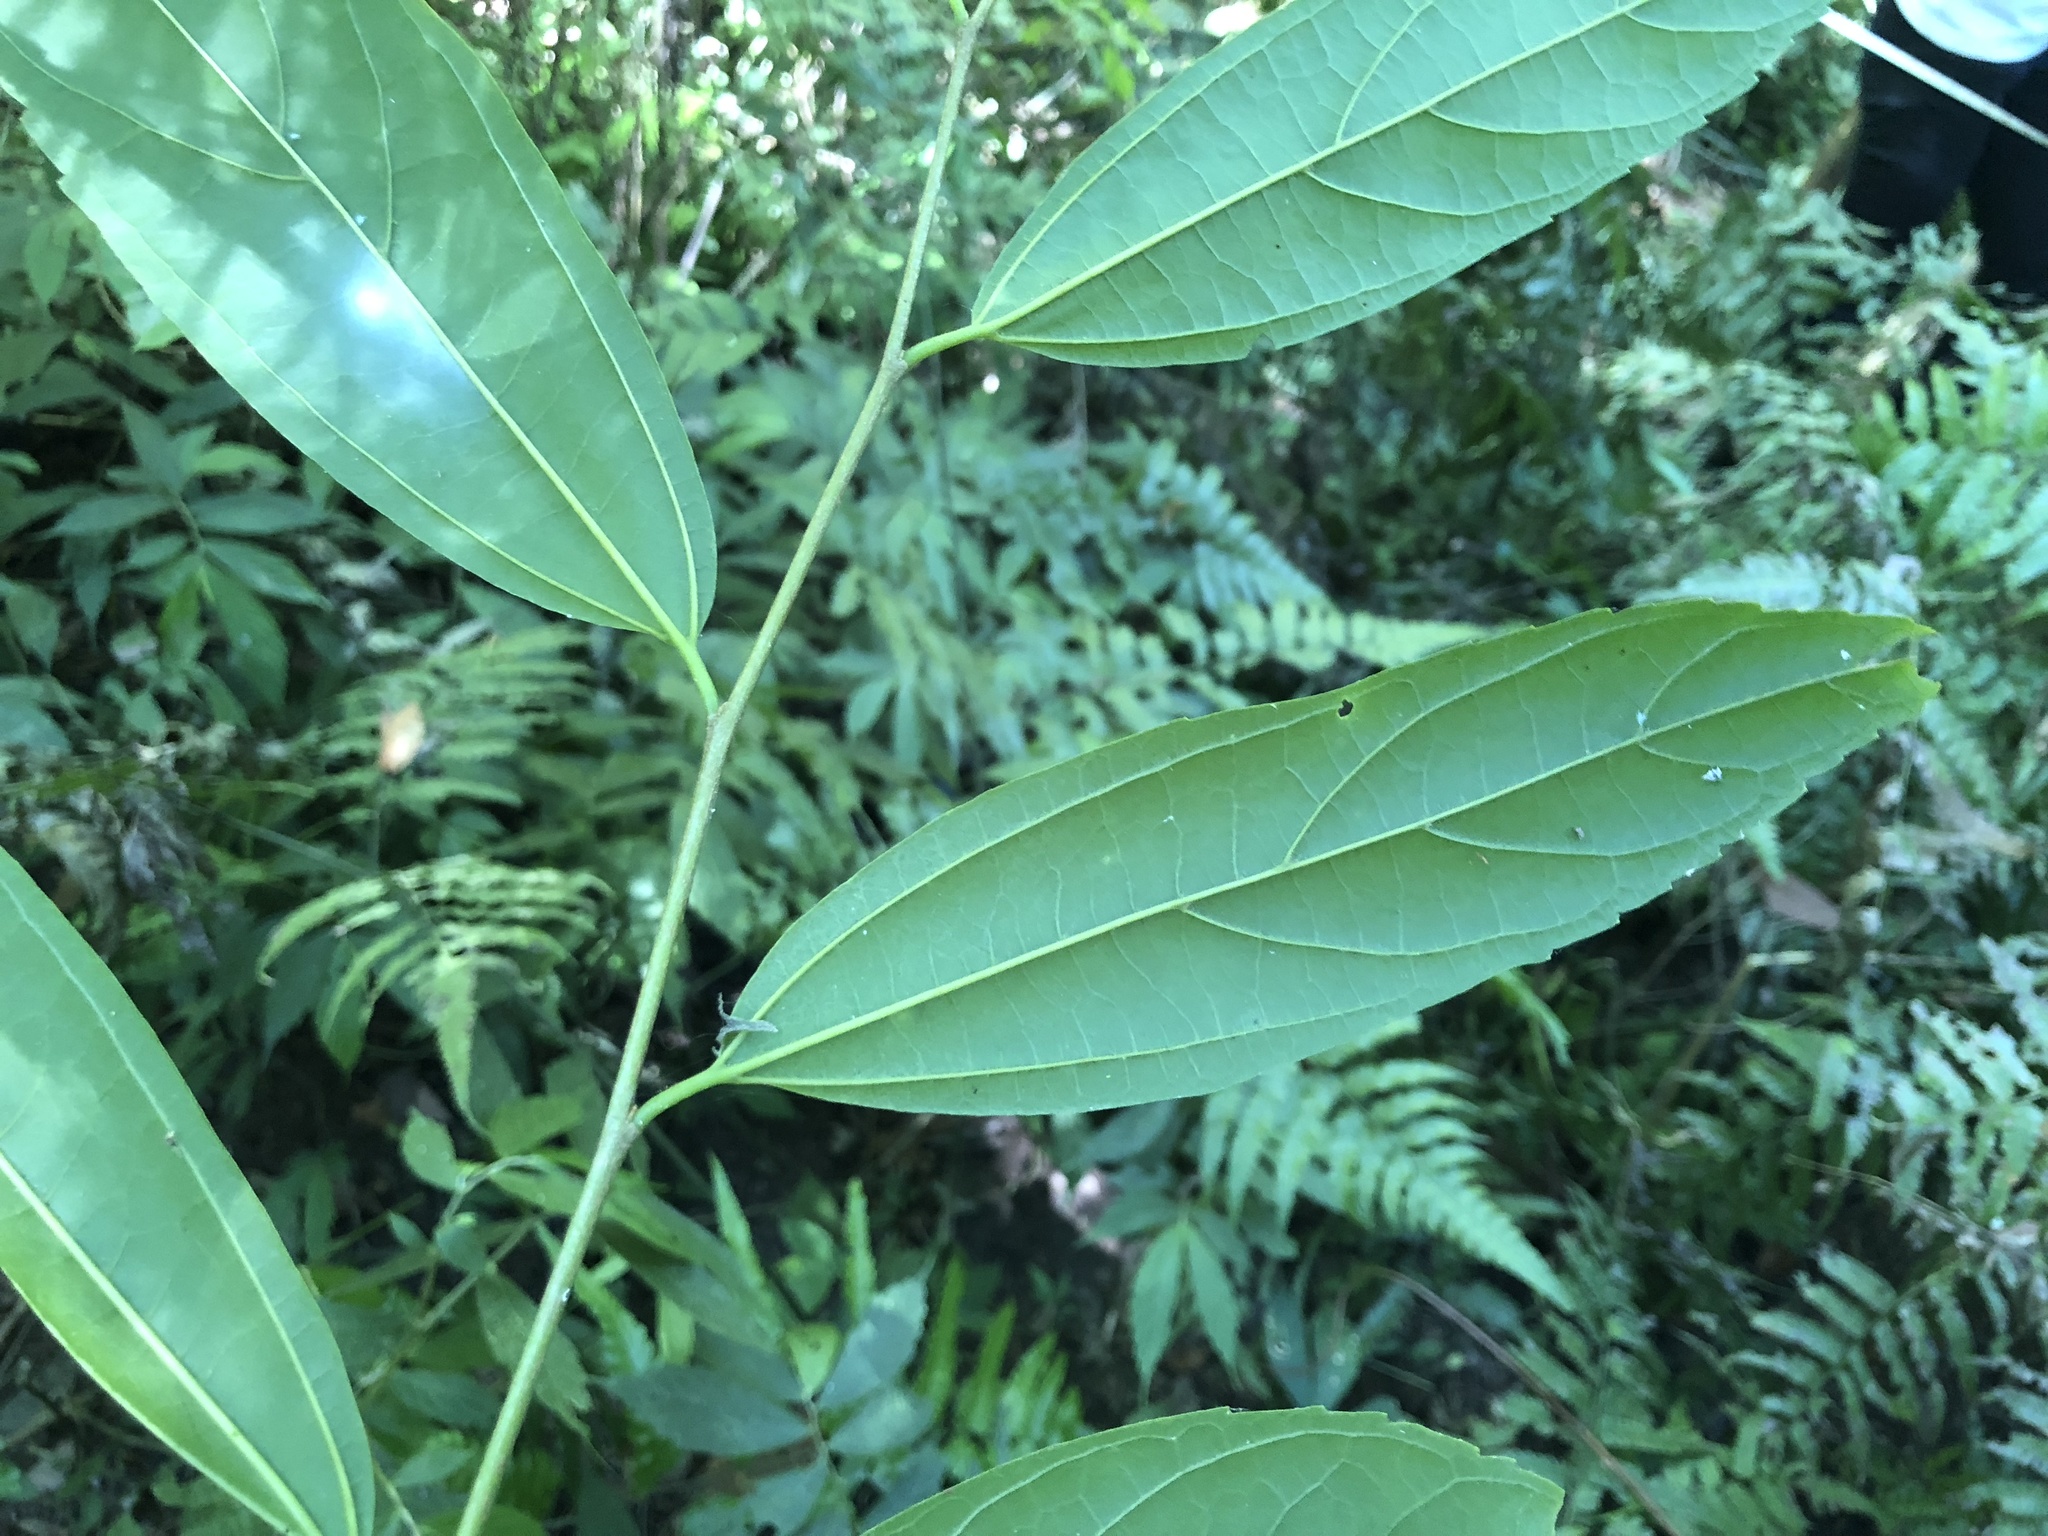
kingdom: Plantae
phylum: Tracheophyta
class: Magnoliopsida
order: Rosales
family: Cannabaceae
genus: Celtis
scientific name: Celtis tetrandra
